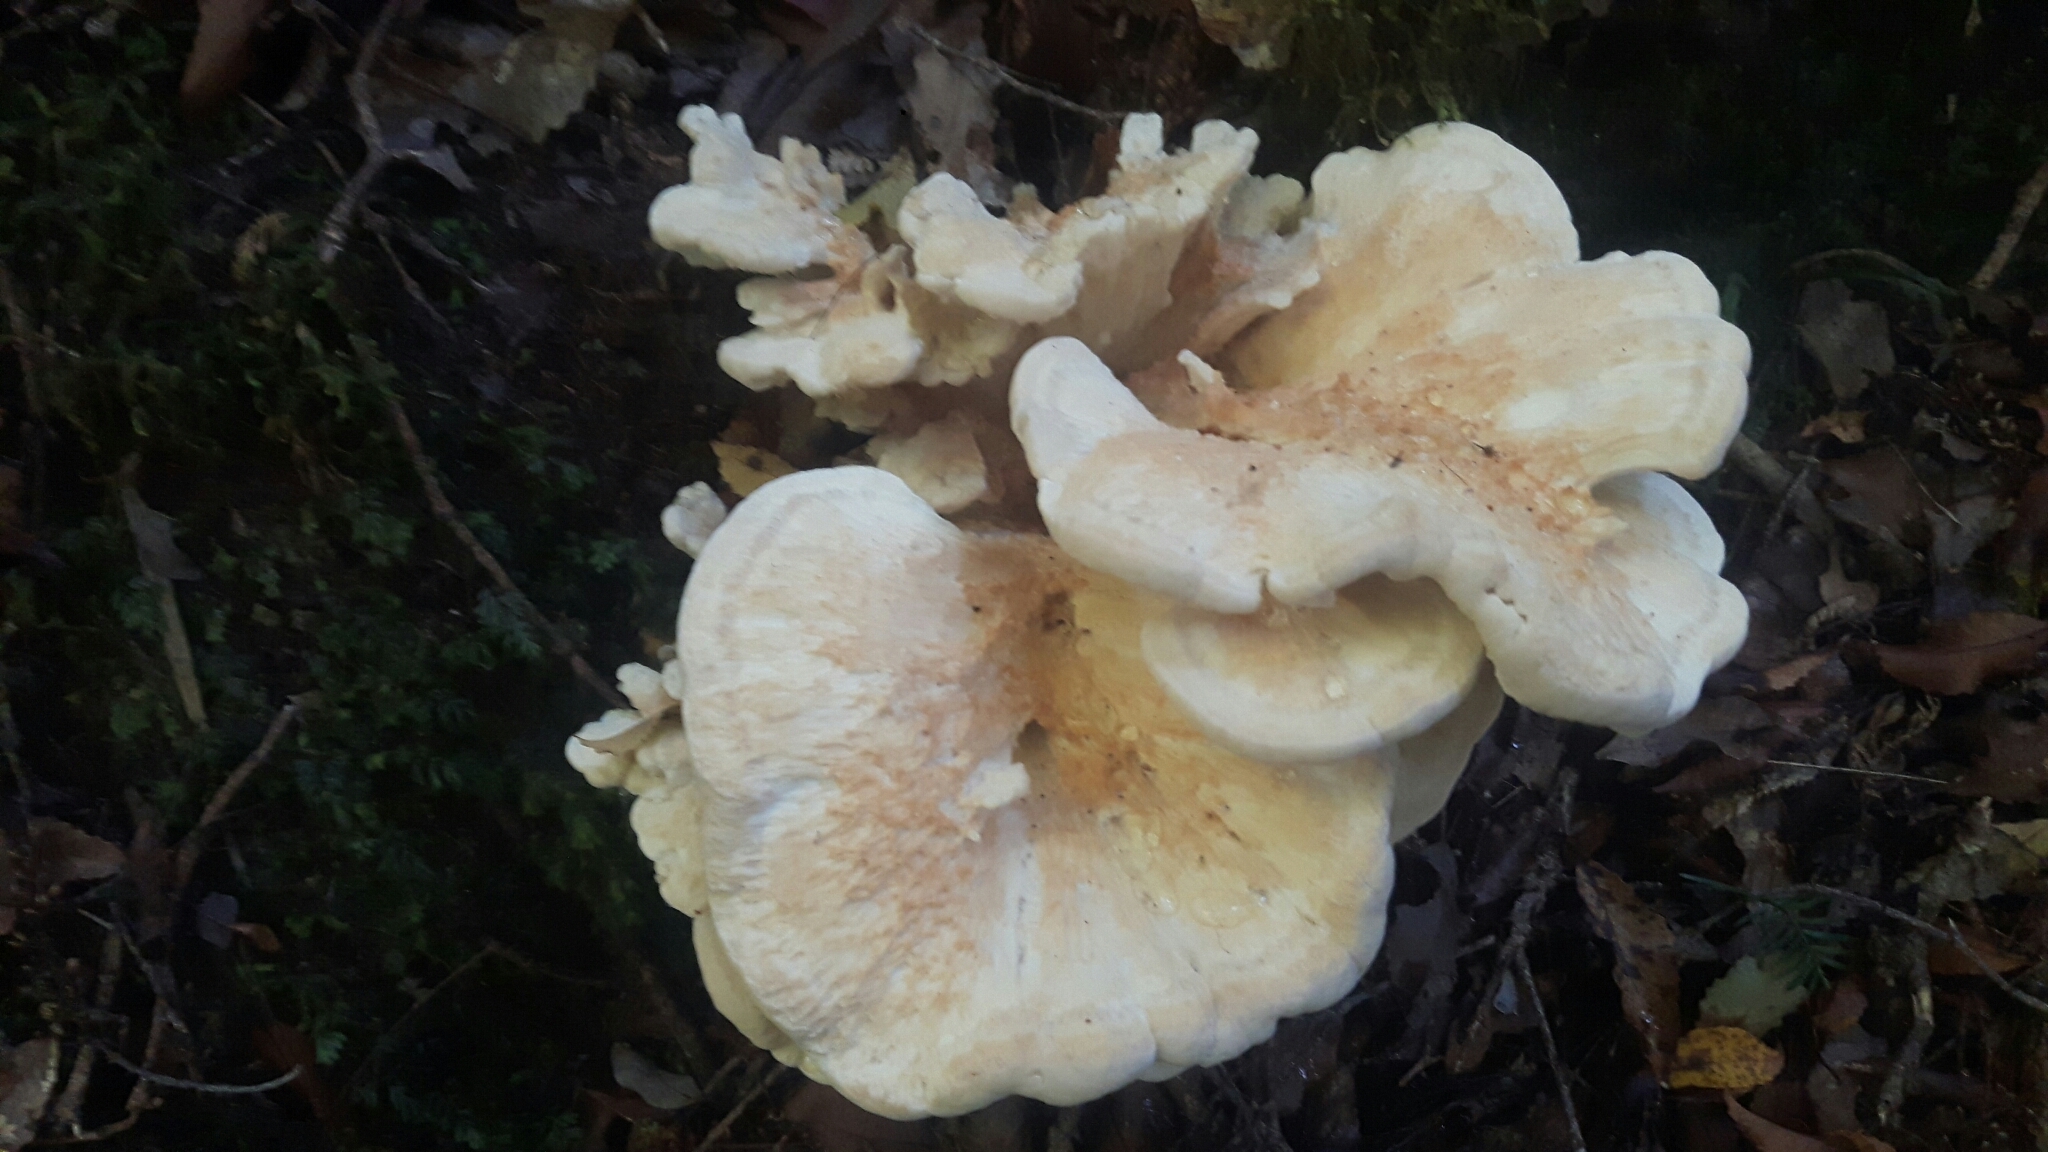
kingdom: Fungi
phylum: Basidiomycota
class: Agaricomycetes
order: Russulales
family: Bondarzewiaceae
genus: Bondarzewia
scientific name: Bondarzewia kirkii
